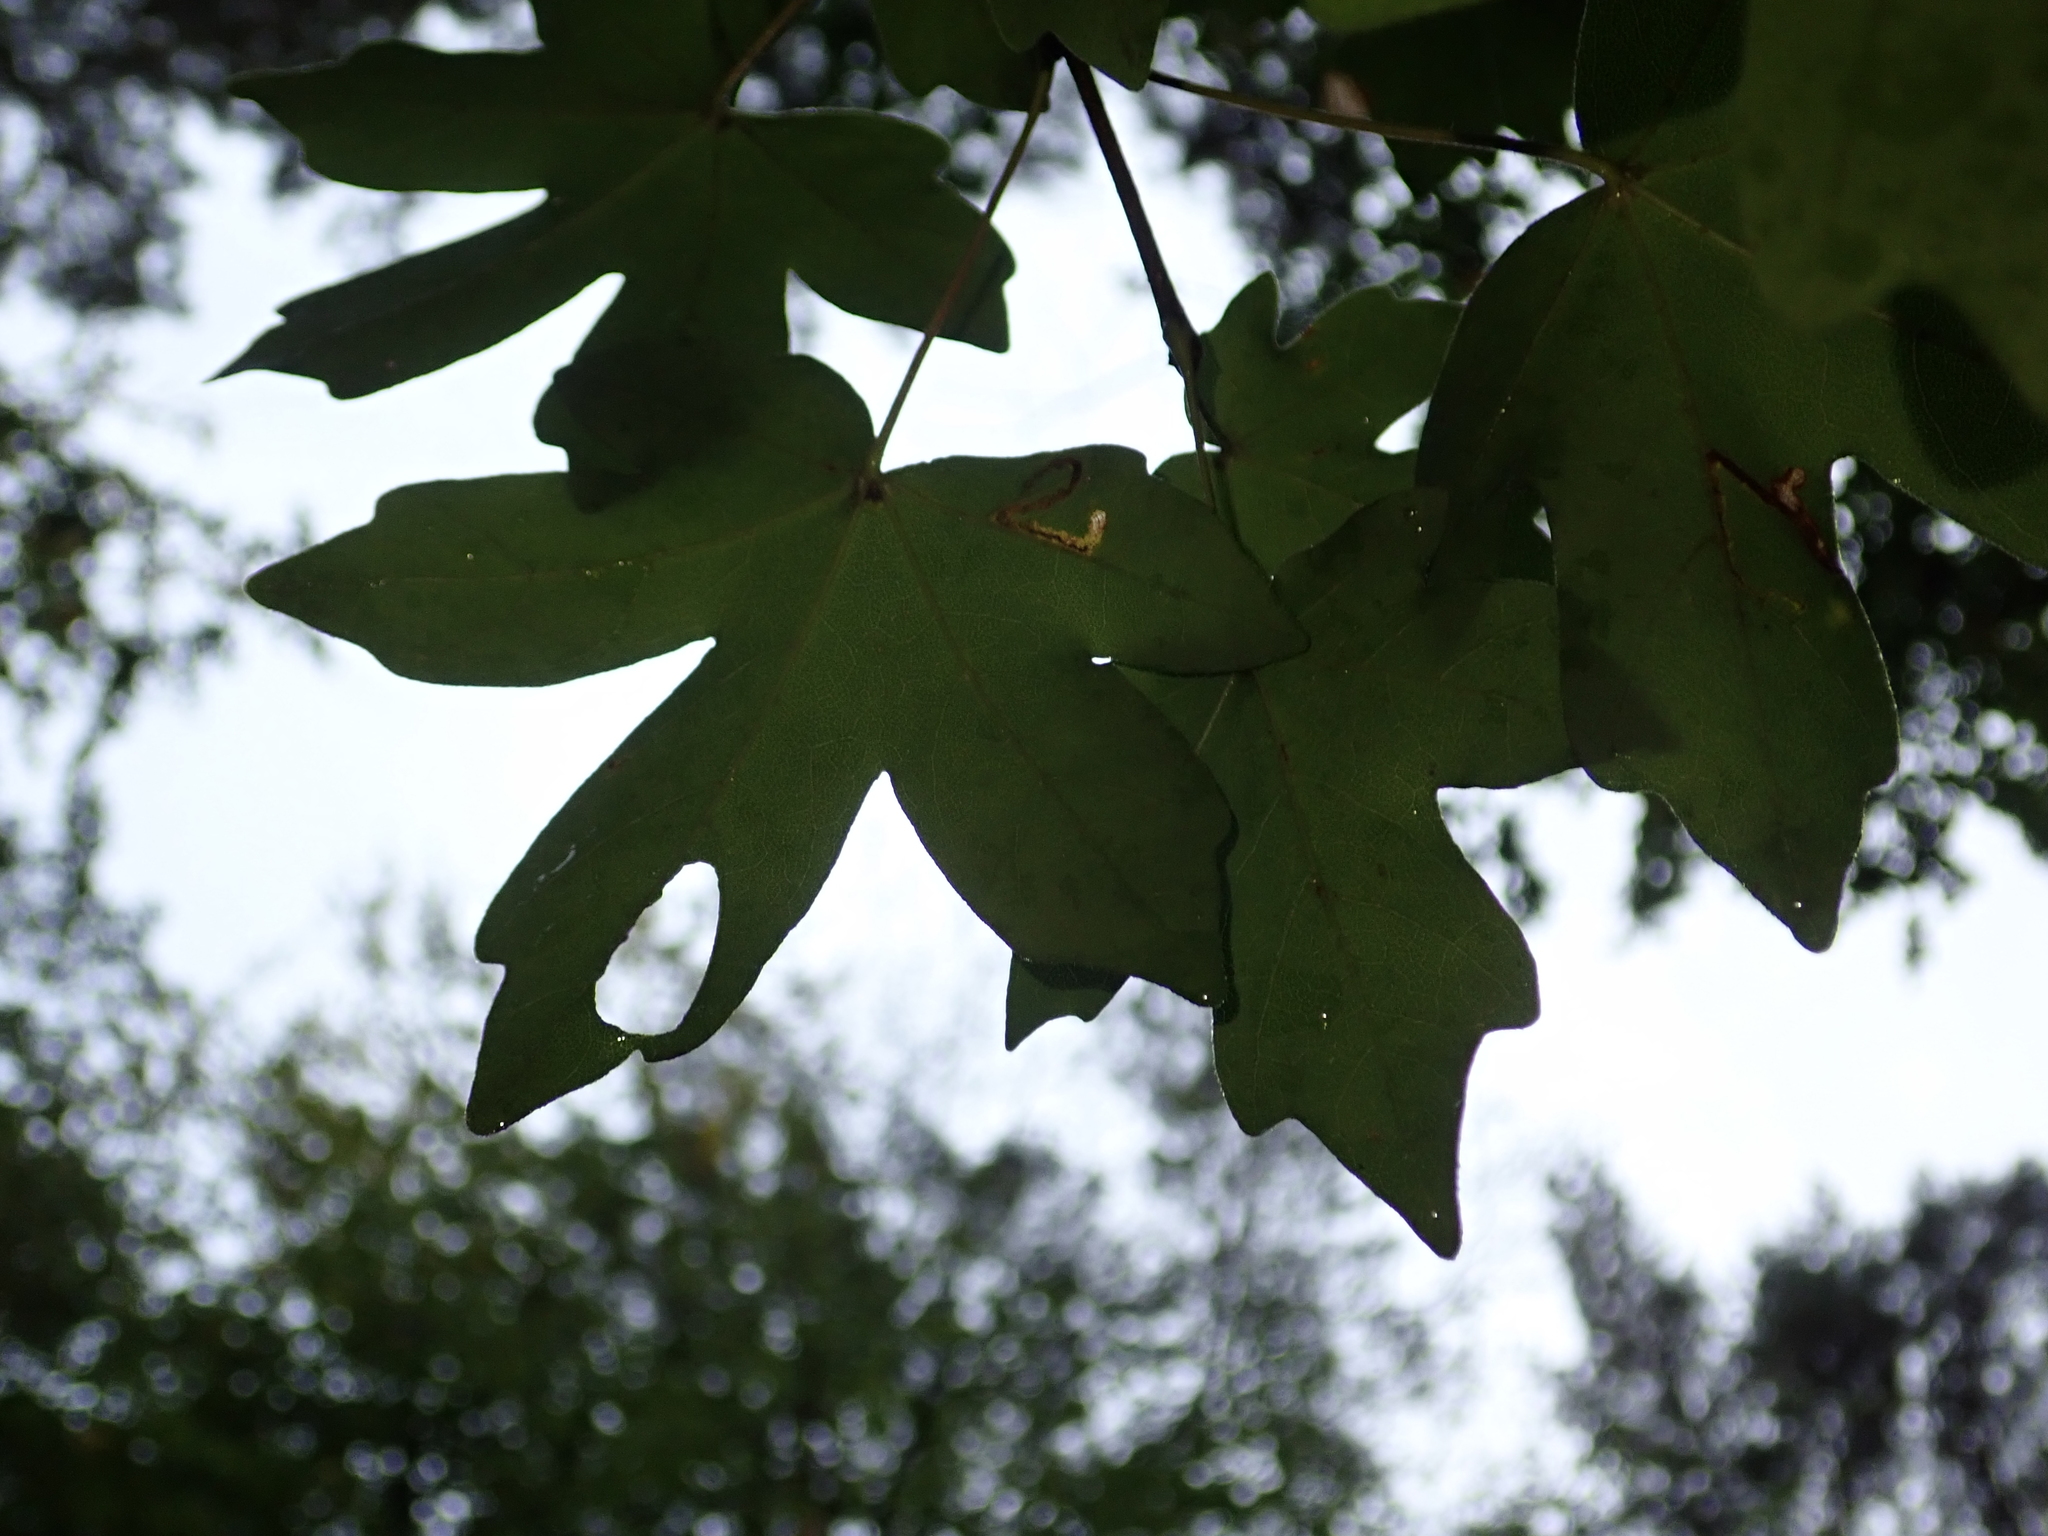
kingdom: Plantae
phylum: Tracheophyta
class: Magnoliopsida
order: Sapindales
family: Sapindaceae
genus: Acer
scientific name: Acer campestre
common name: Field maple
